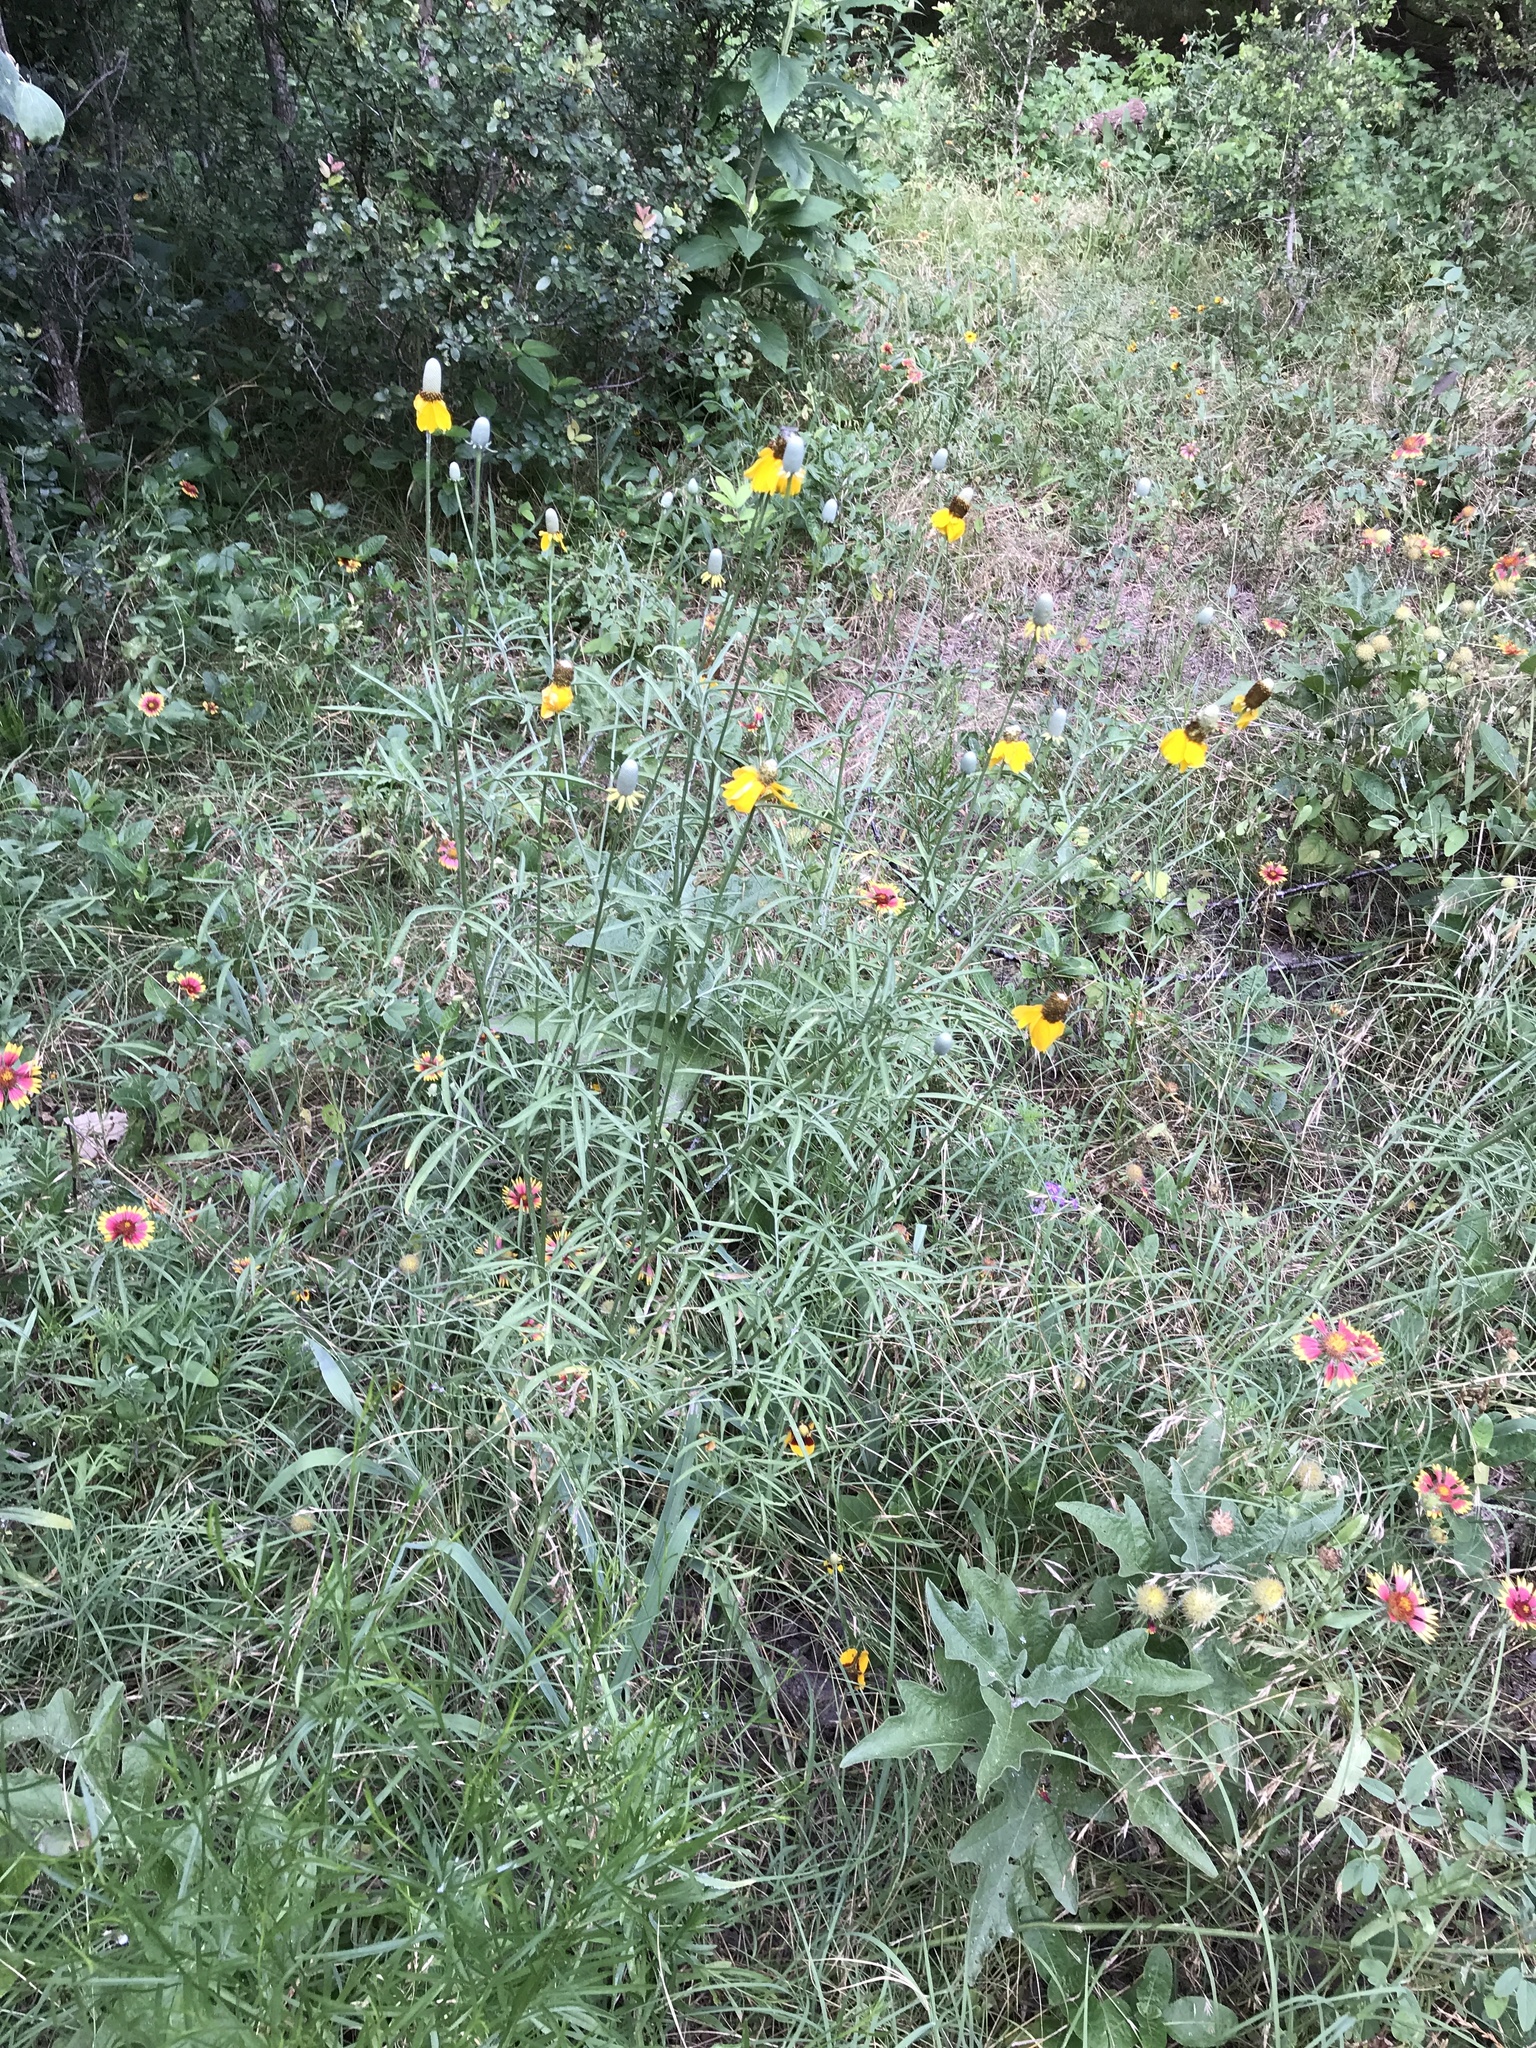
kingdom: Plantae
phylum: Tracheophyta
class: Magnoliopsida
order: Asterales
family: Asteraceae
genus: Ratibida
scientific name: Ratibida columnifera
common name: Prairie coneflower
